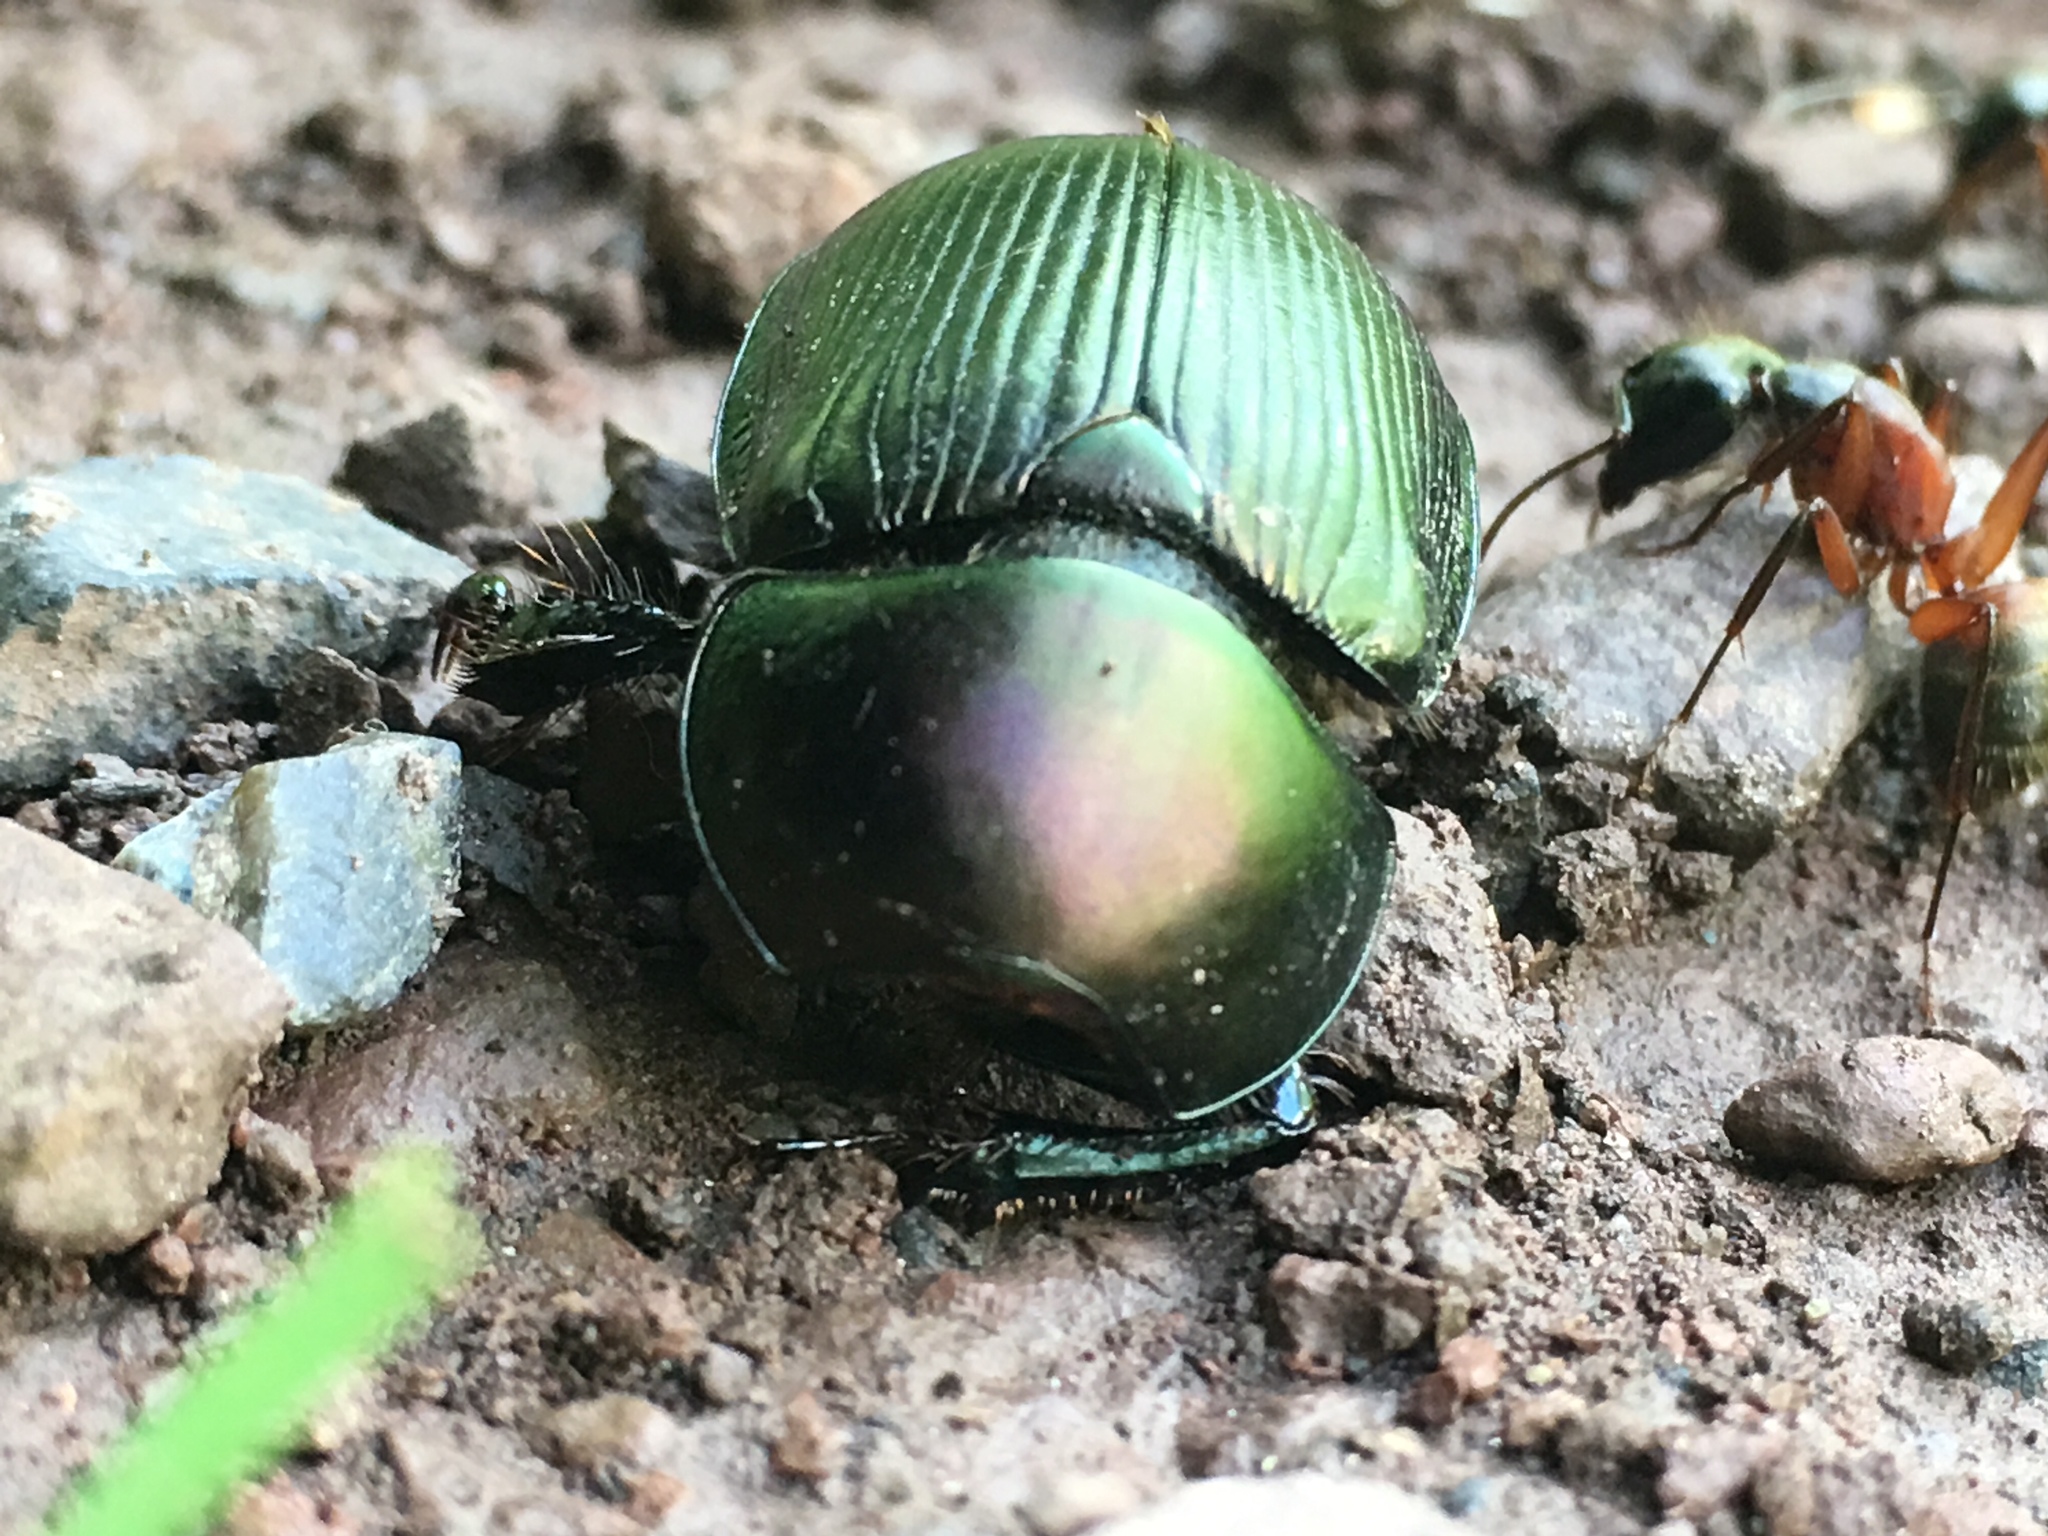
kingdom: Animalia
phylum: Arthropoda
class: Insecta
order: Coleoptera
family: Geotrupidae
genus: Geotrupes
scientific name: Geotrupes splendidus
